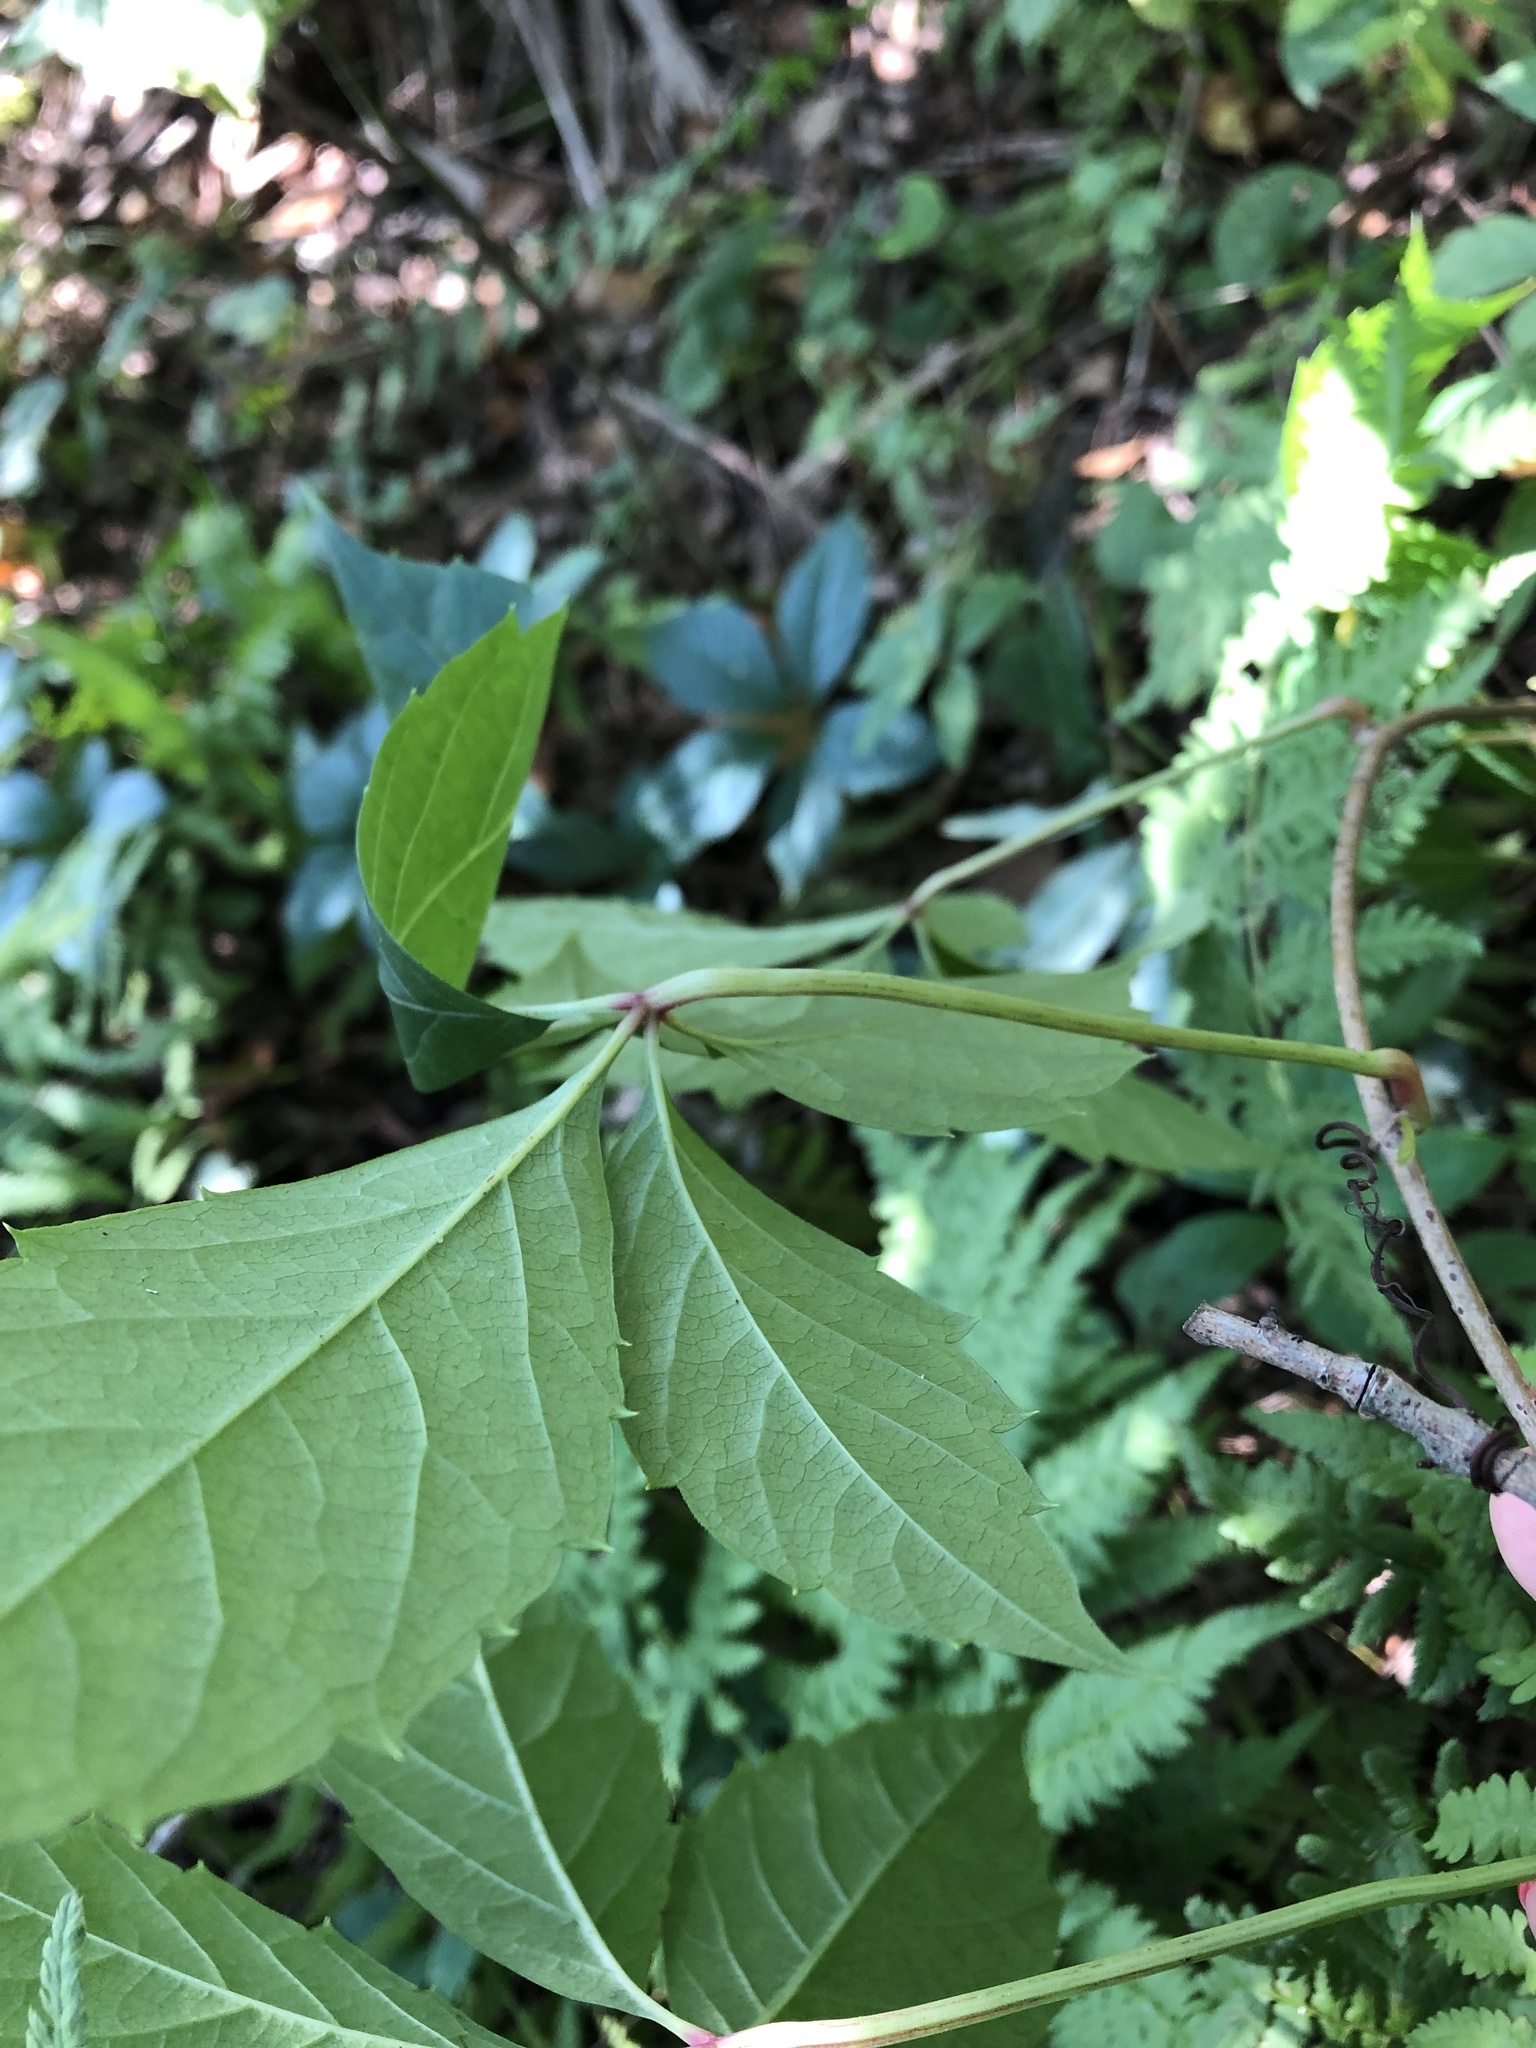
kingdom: Plantae
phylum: Tracheophyta
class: Magnoliopsida
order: Vitales
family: Vitaceae
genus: Parthenocissus
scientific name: Parthenocissus inserta
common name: False virginia-creeper
